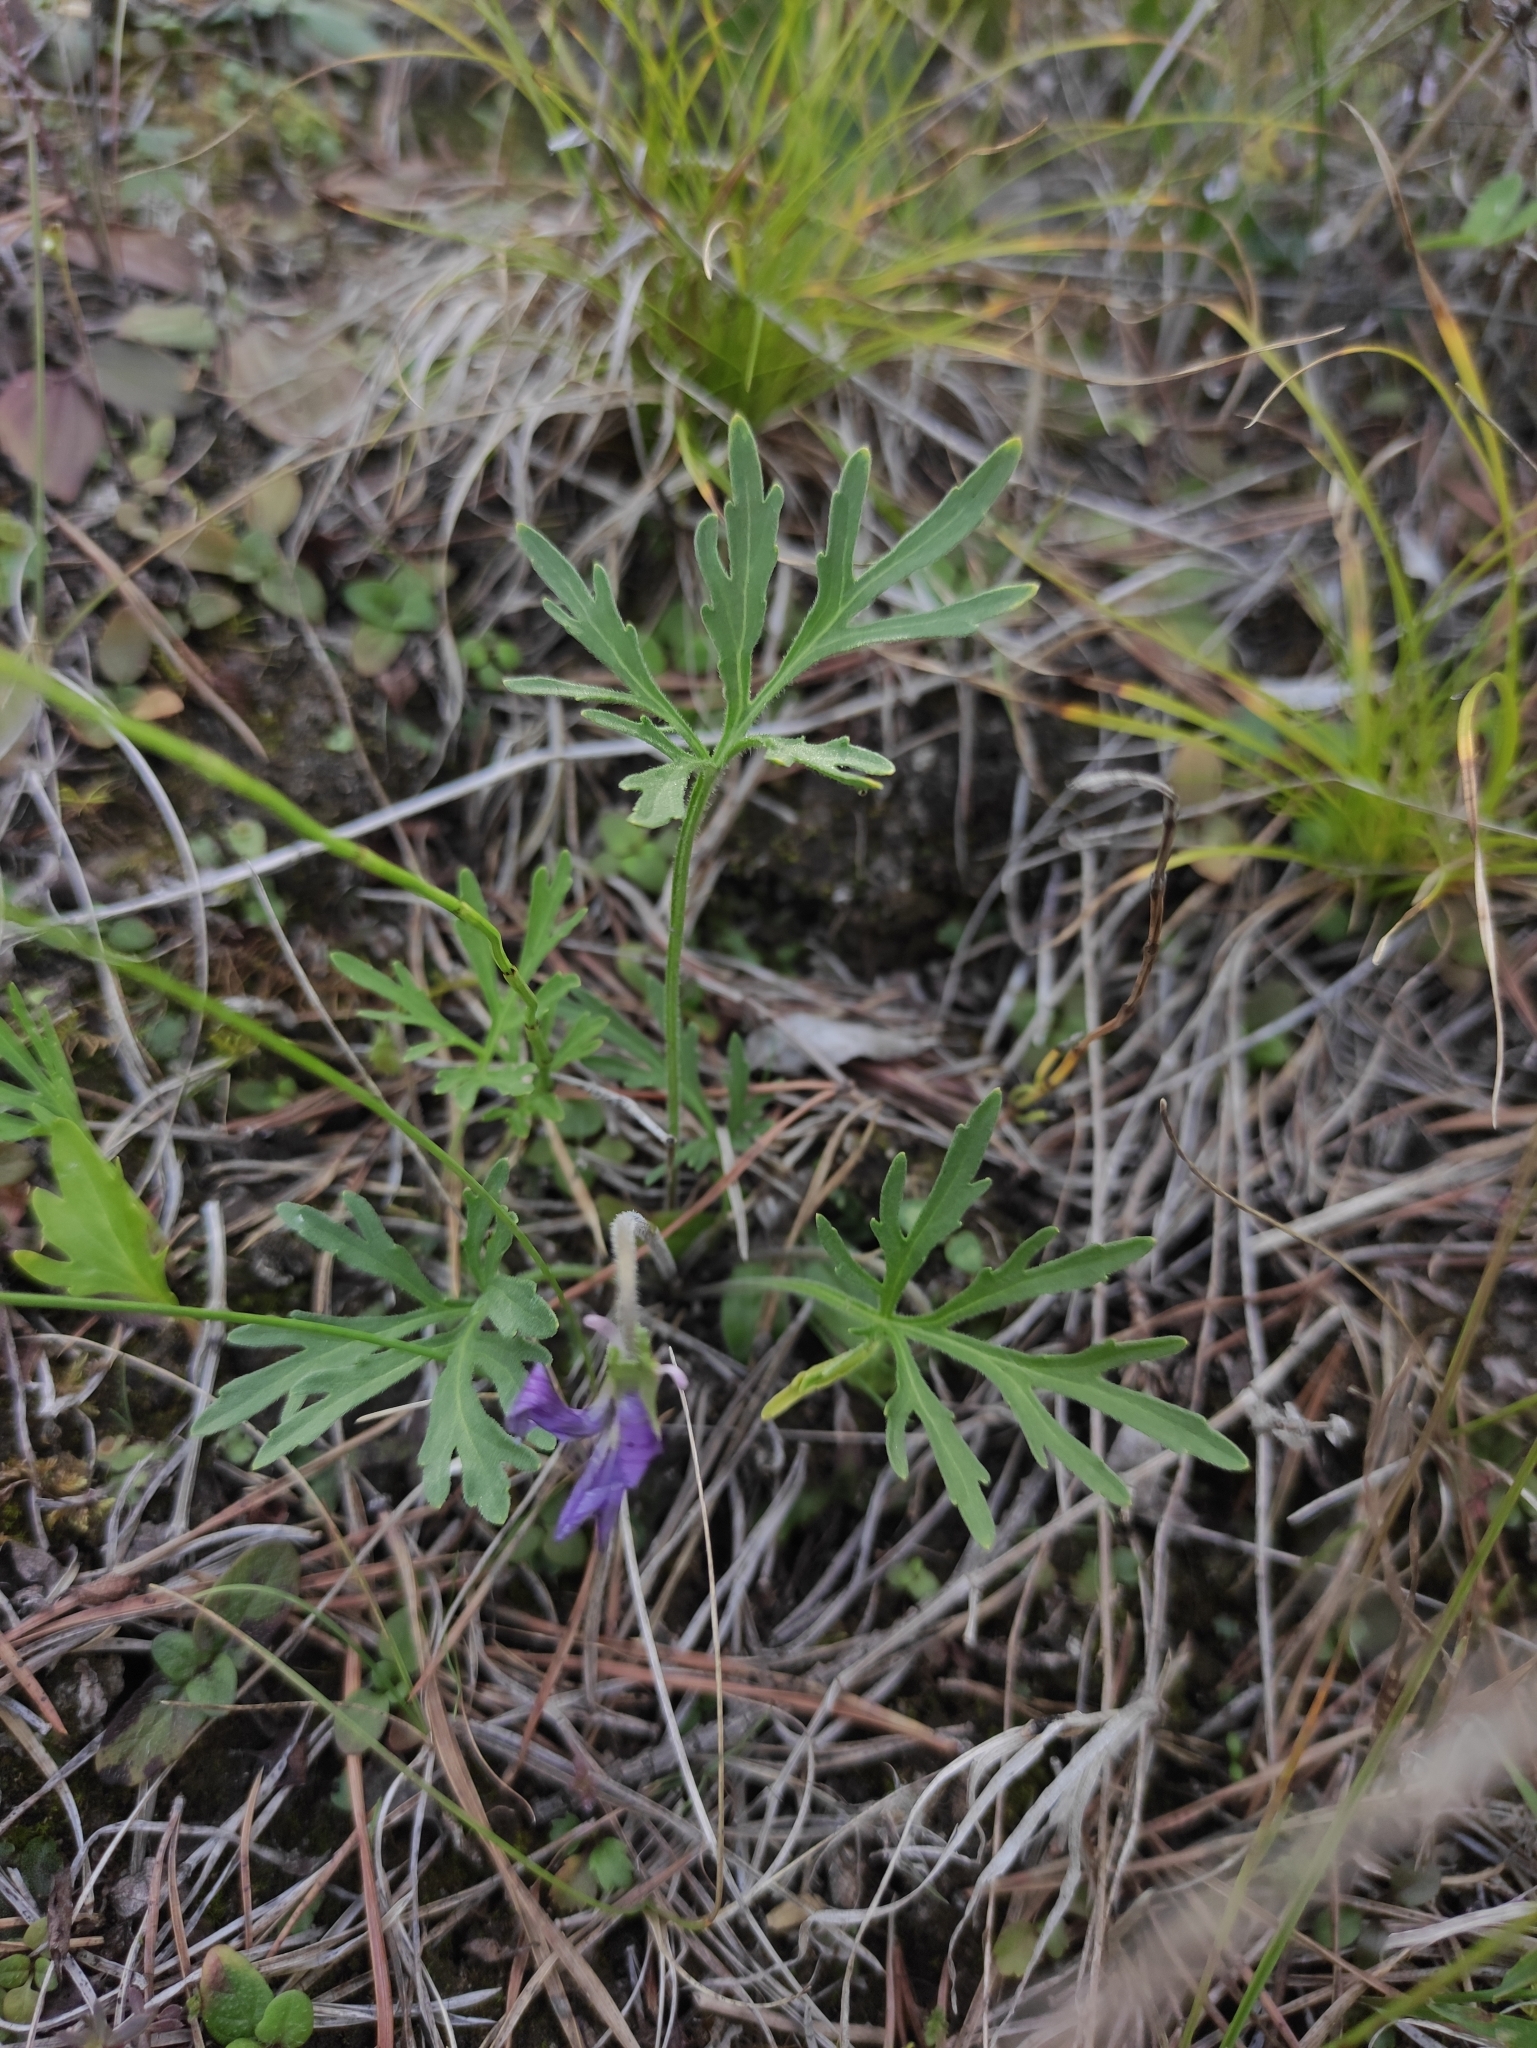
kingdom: Plantae
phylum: Tracheophyta
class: Magnoliopsida
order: Malpighiales
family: Violaceae
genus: Viola
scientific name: Viola multifida
